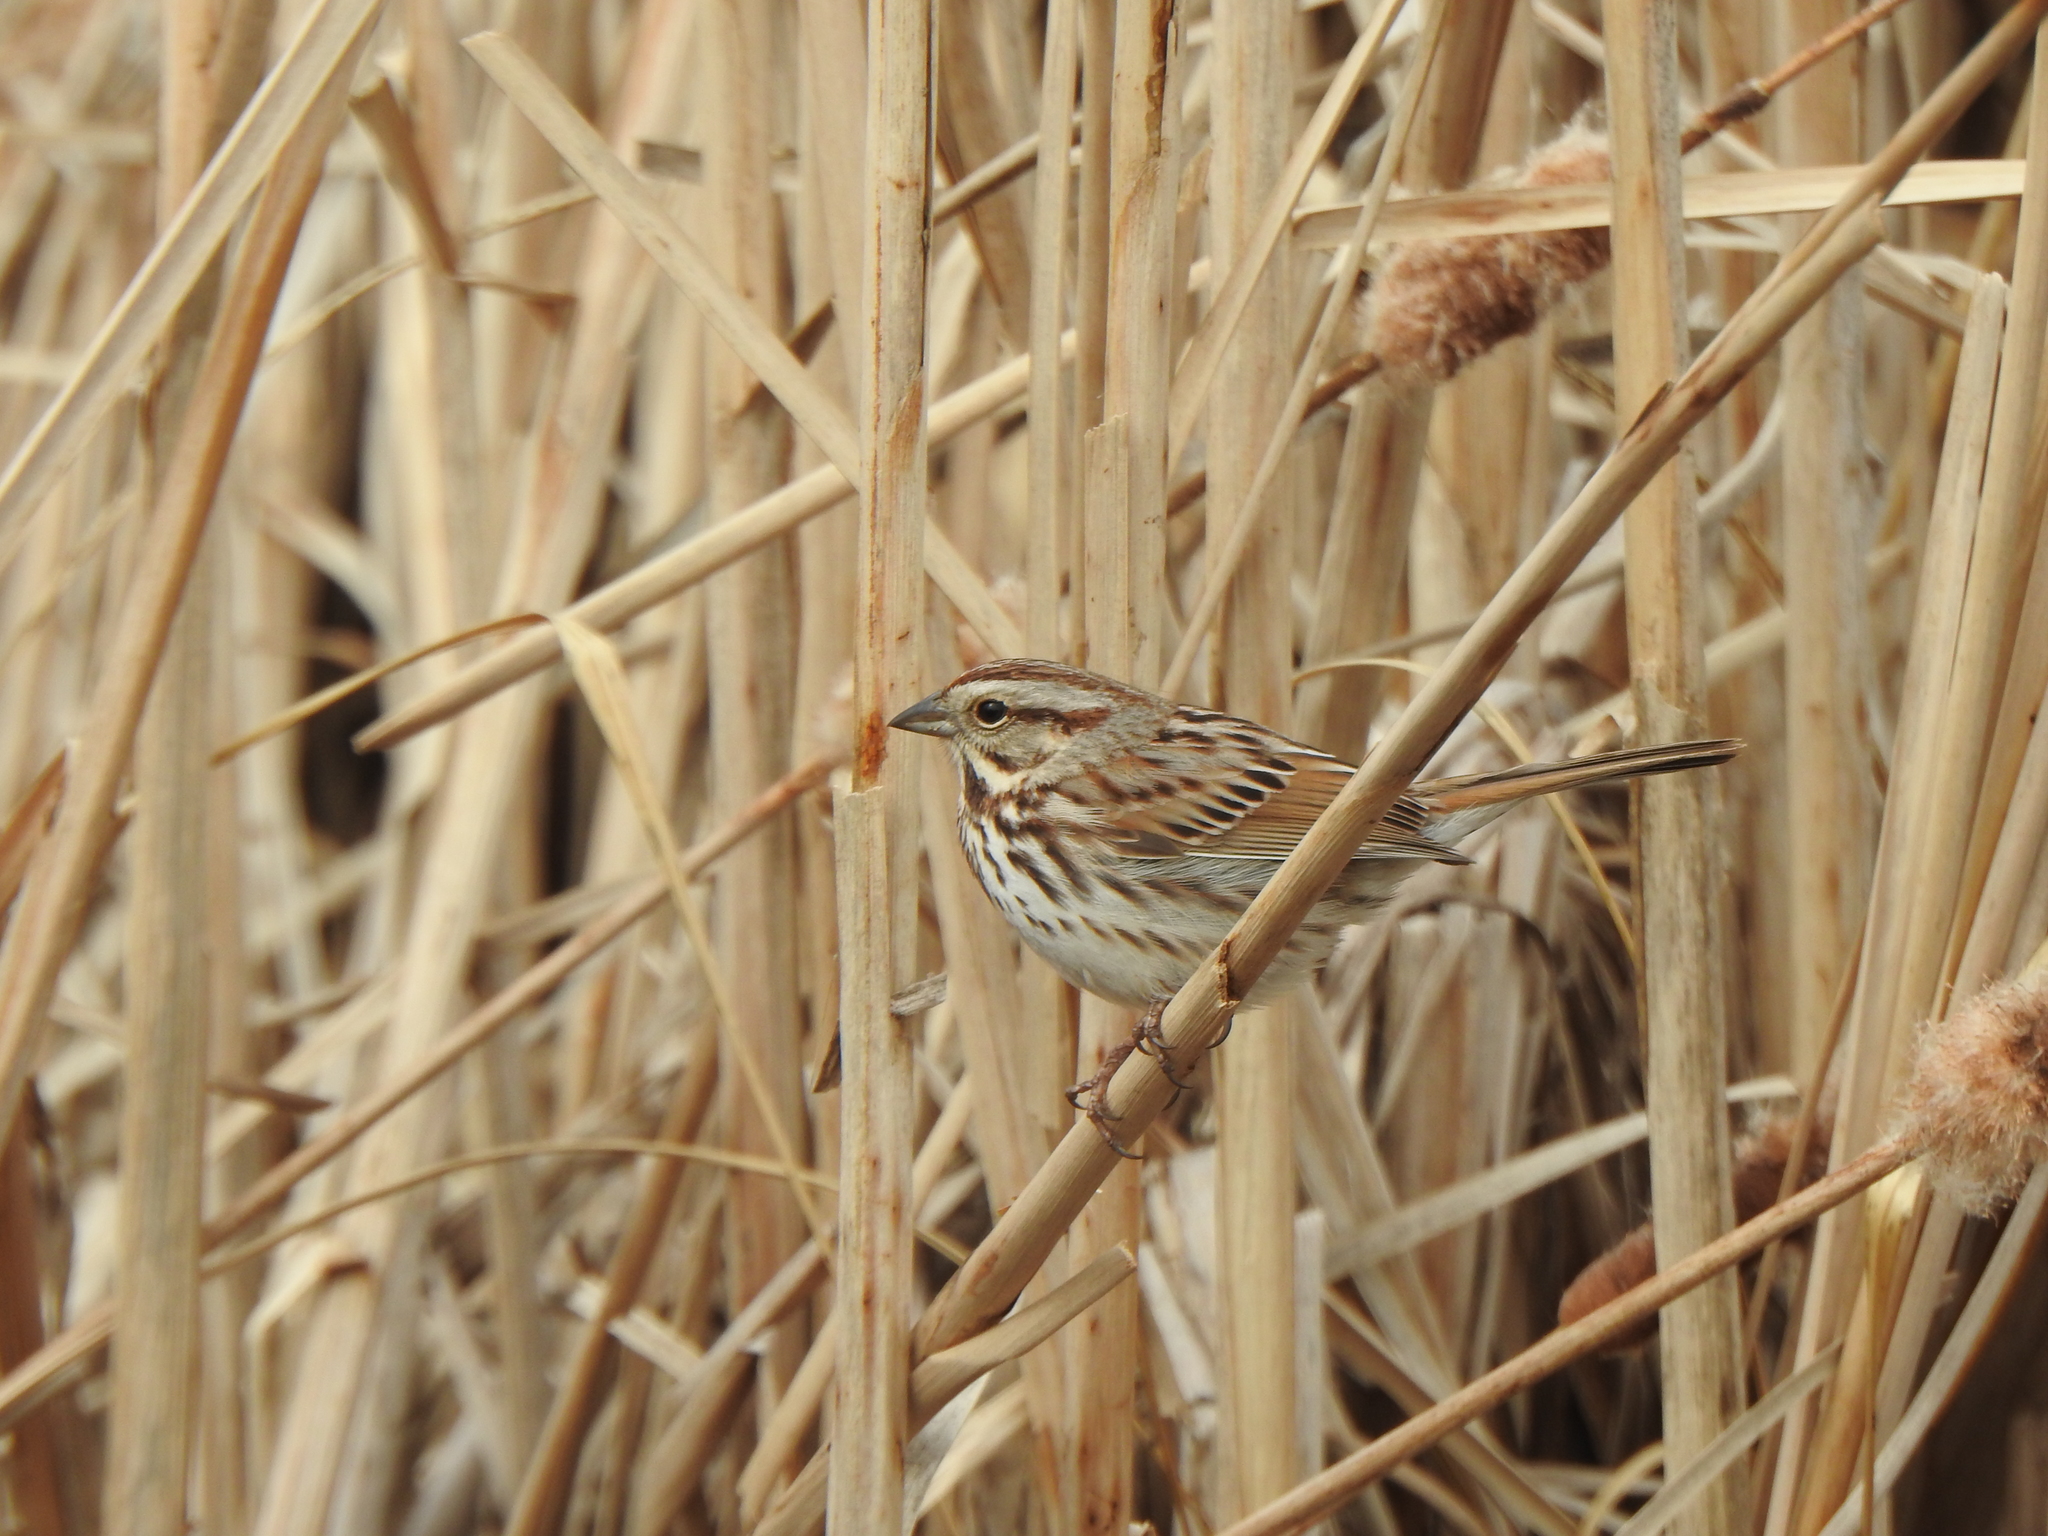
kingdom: Animalia
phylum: Chordata
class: Aves
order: Passeriformes
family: Passerellidae
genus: Melospiza
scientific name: Melospiza melodia
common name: Song sparrow
